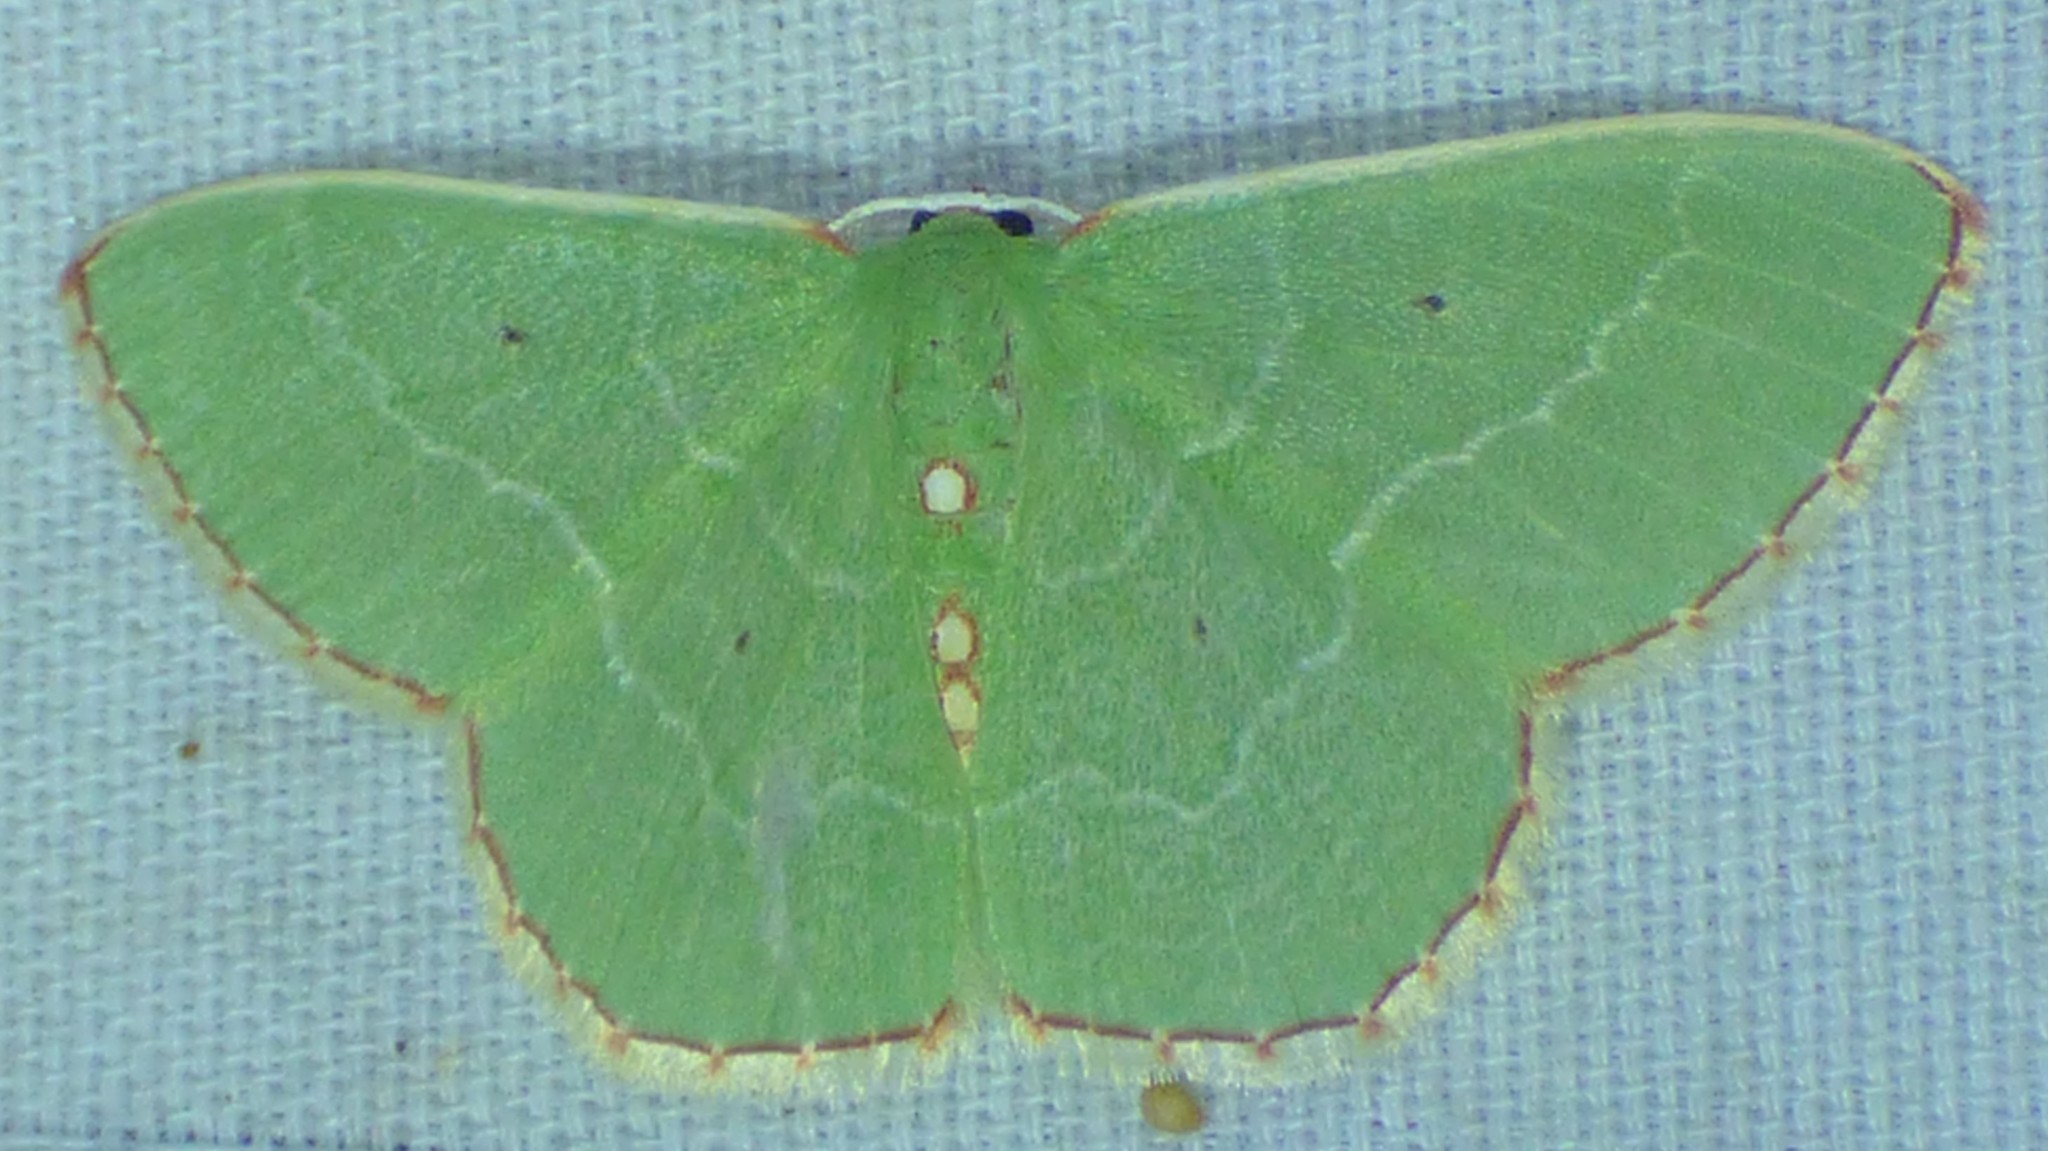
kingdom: Animalia
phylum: Arthropoda
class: Insecta
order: Lepidoptera
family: Geometridae
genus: Nemoria
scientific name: Nemoria lixaria
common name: Red-bordered emerald
